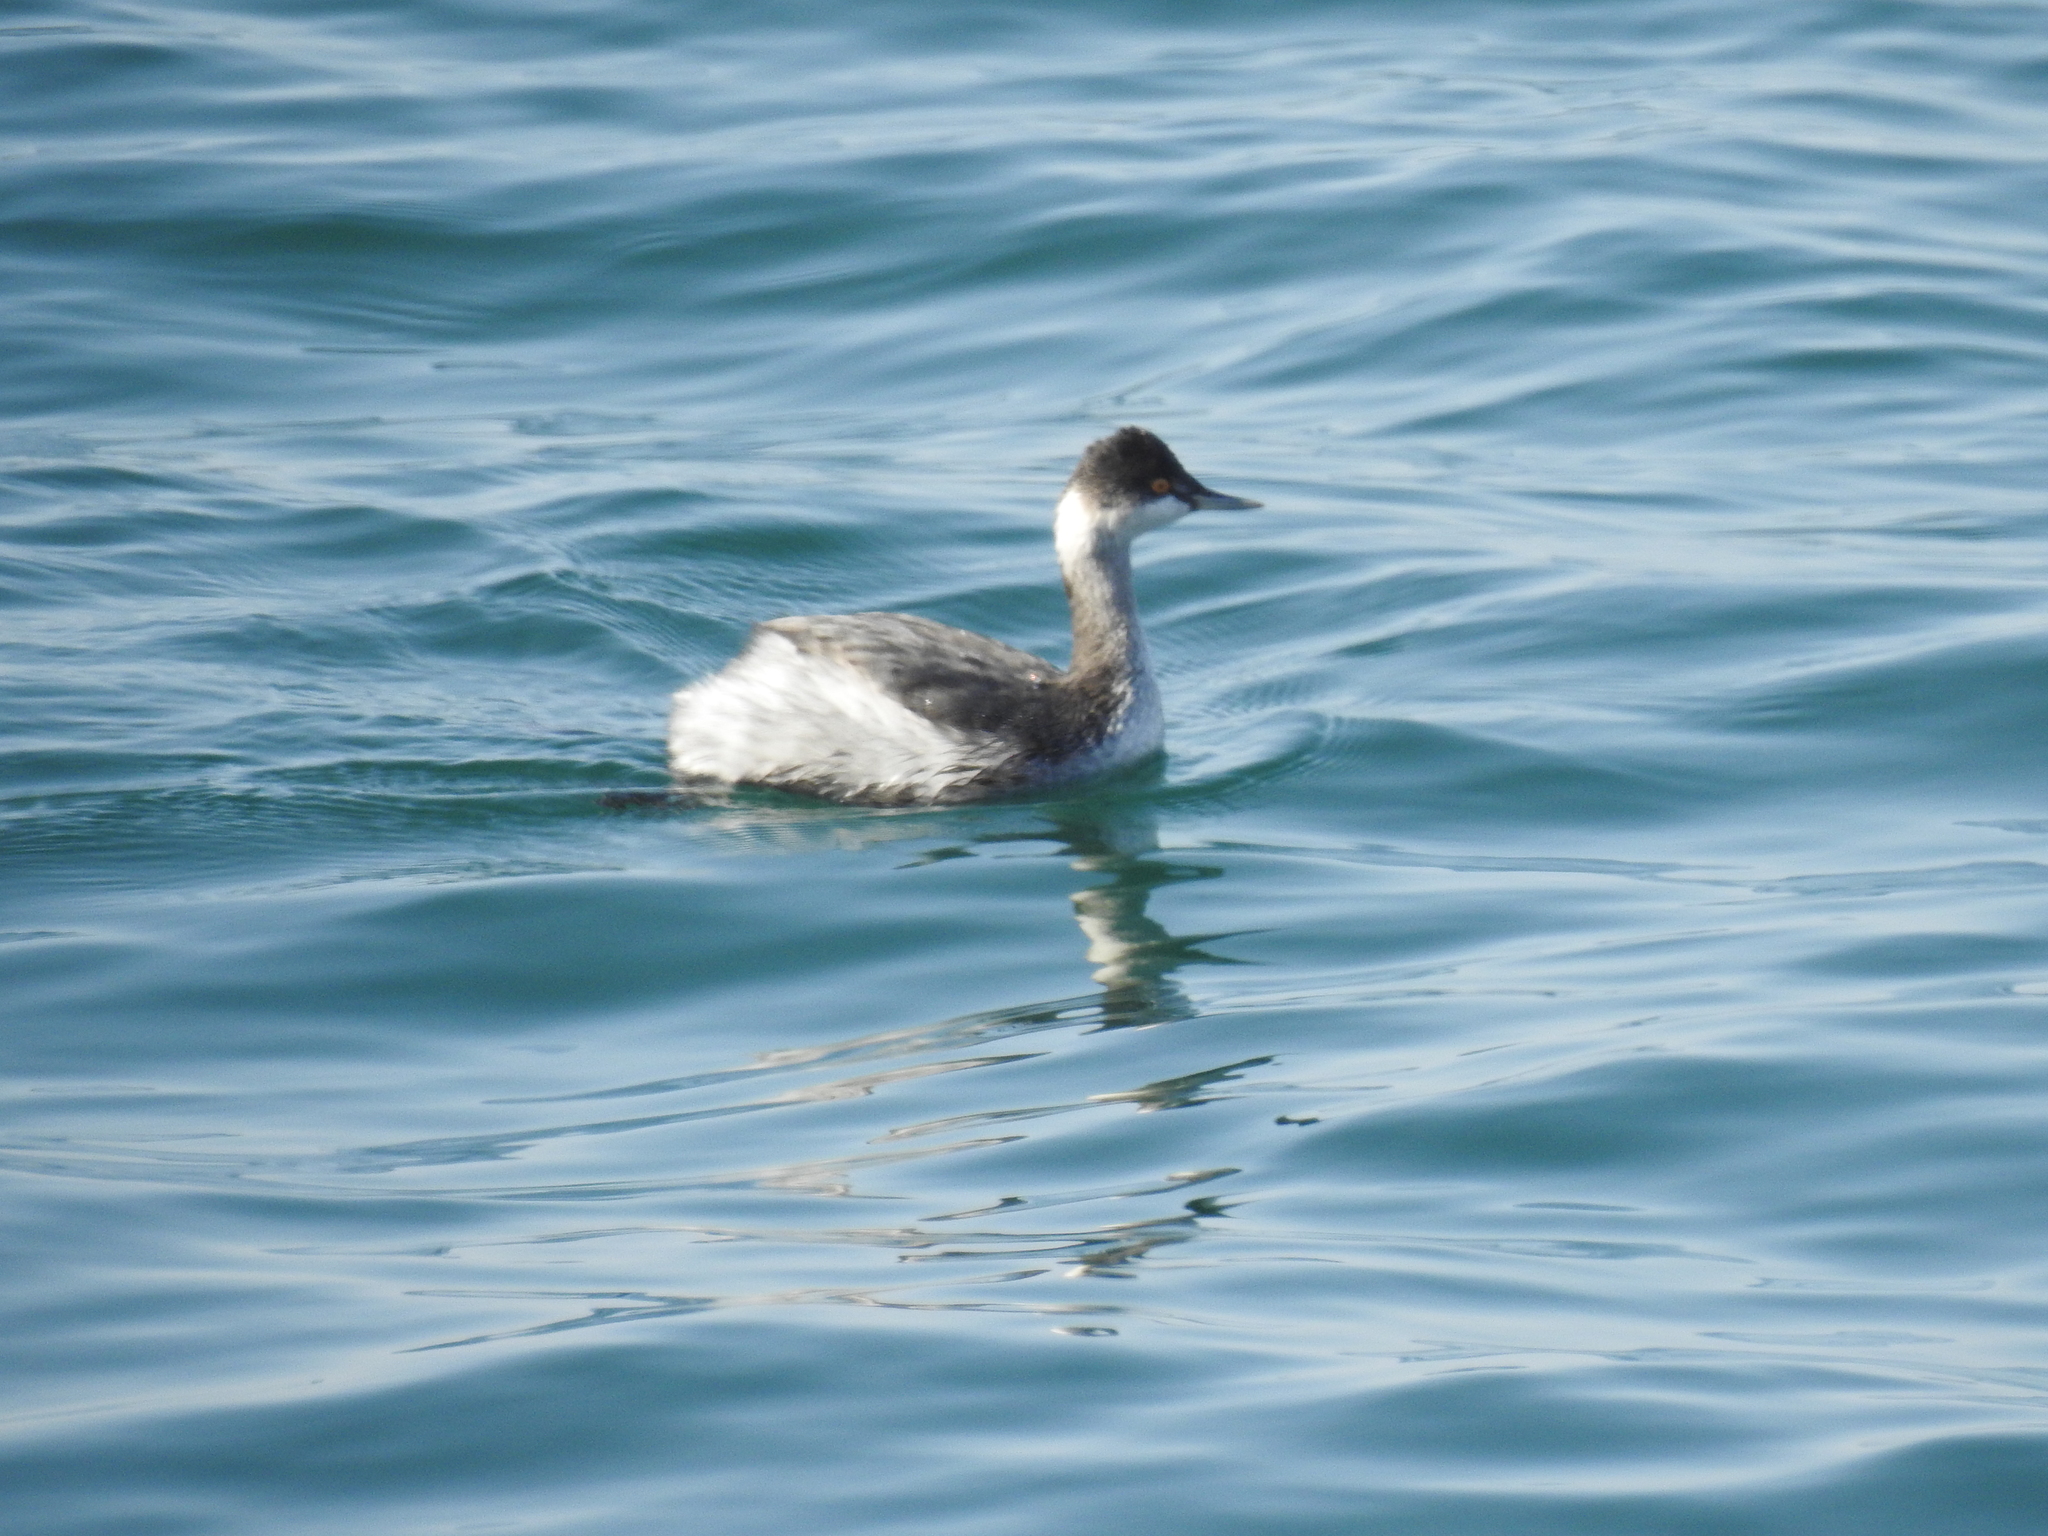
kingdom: Animalia
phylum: Chordata
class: Aves
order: Podicipediformes
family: Podicipedidae
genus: Podiceps
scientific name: Podiceps nigricollis
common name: Black-necked grebe
